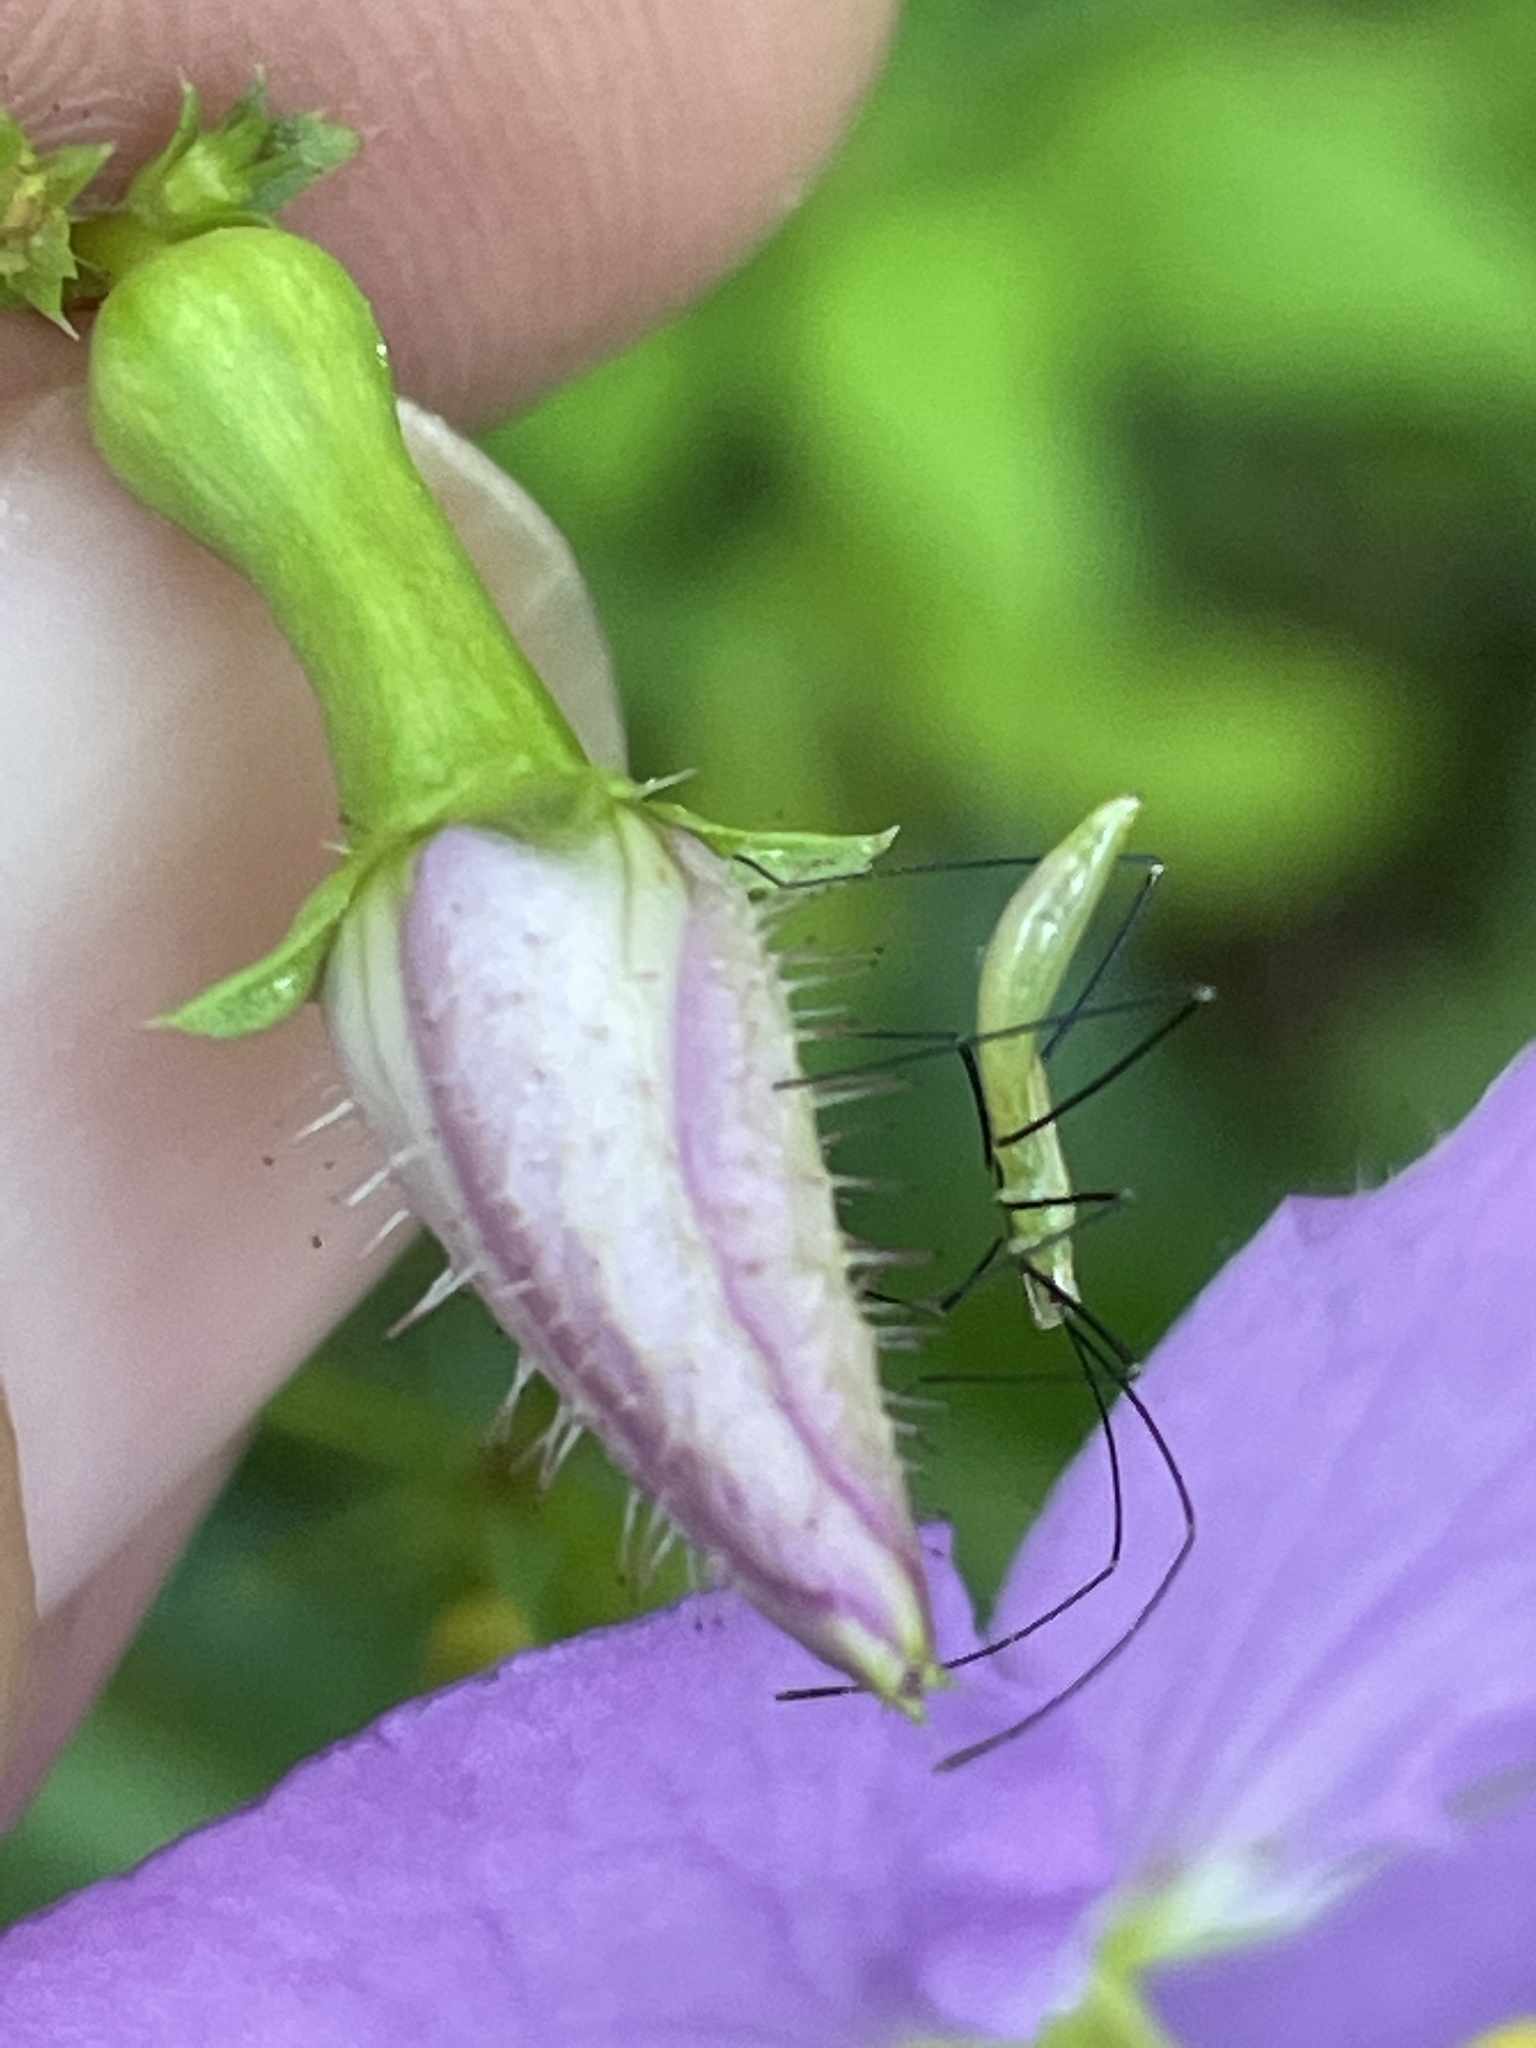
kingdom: Plantae
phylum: Tracheophyta
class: Magnoliopsida
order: Myrtales
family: Melastomataceae
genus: Rhexia
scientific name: Rhexia nashii
